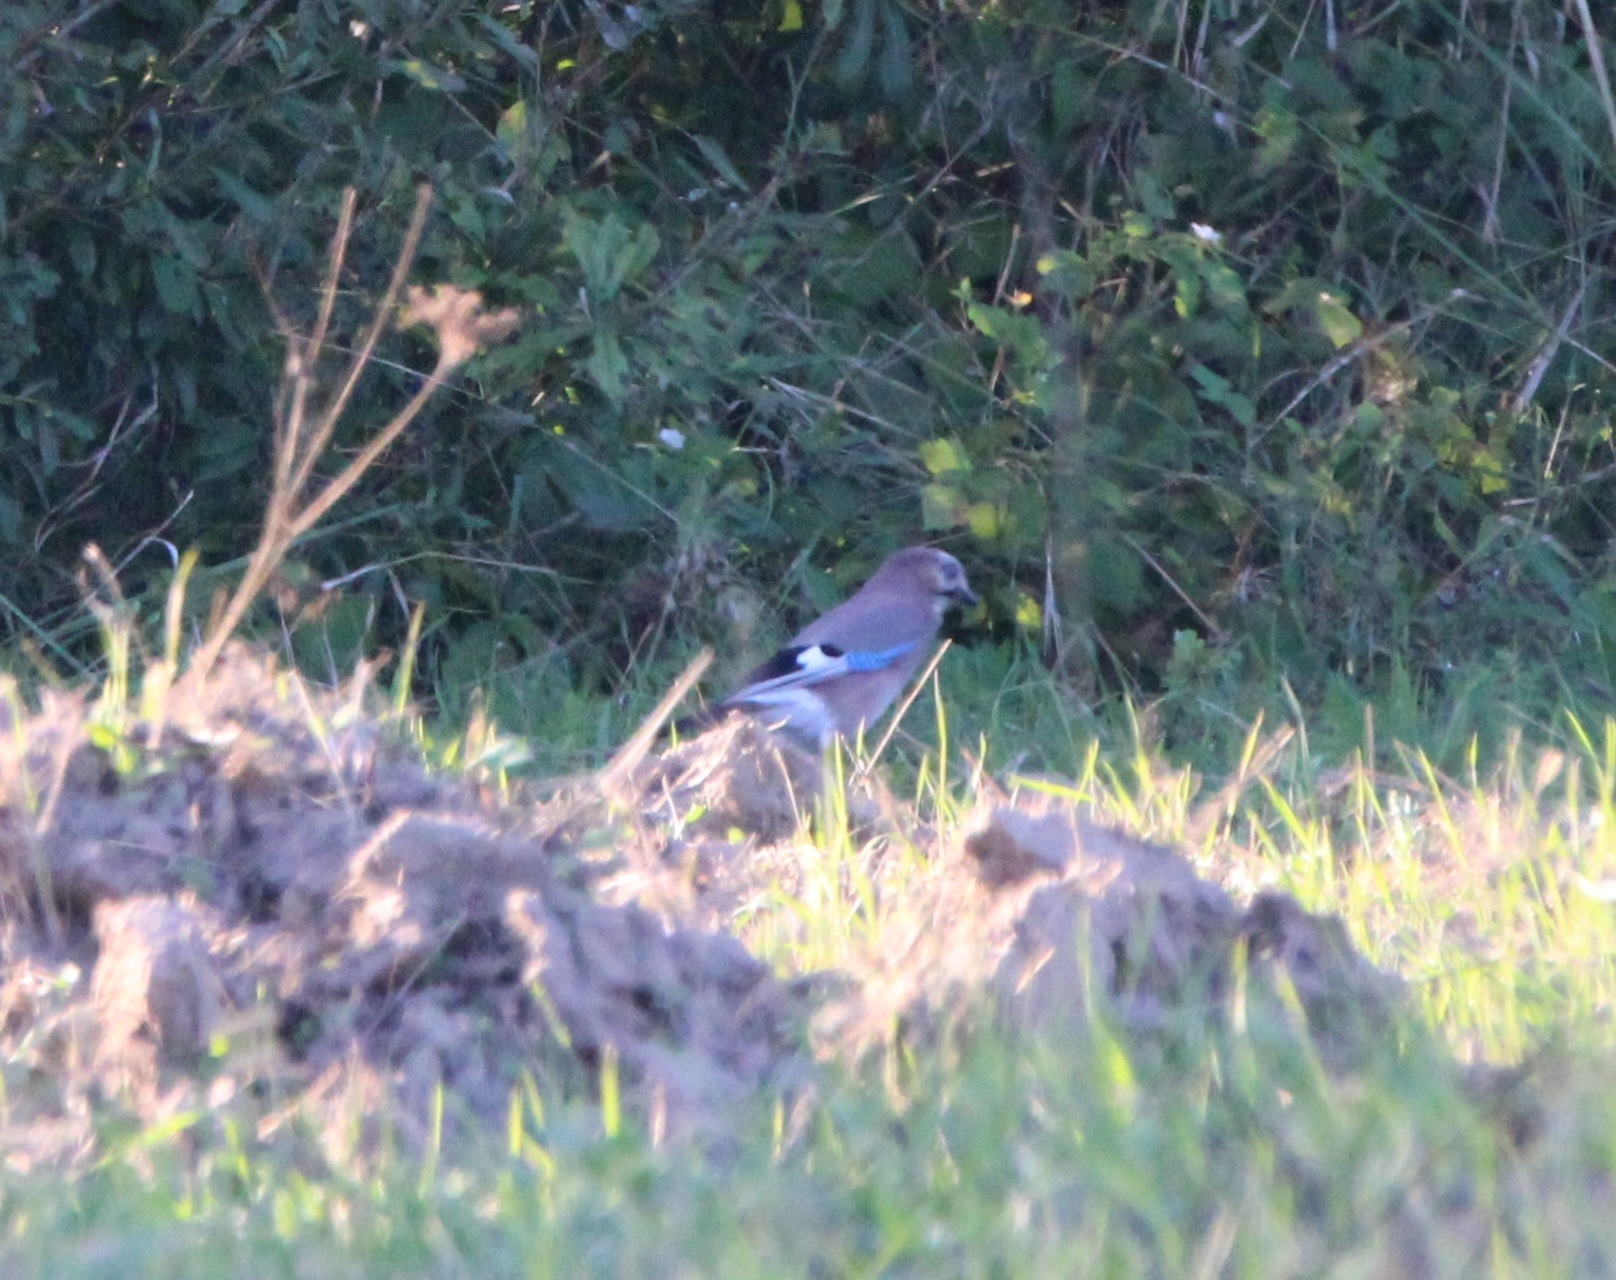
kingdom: Animalia
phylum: Chordata
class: Aves
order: Passeriformes
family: Corvidae
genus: Garrulus
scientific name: Garrulus glandarius
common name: Eurasian jay
